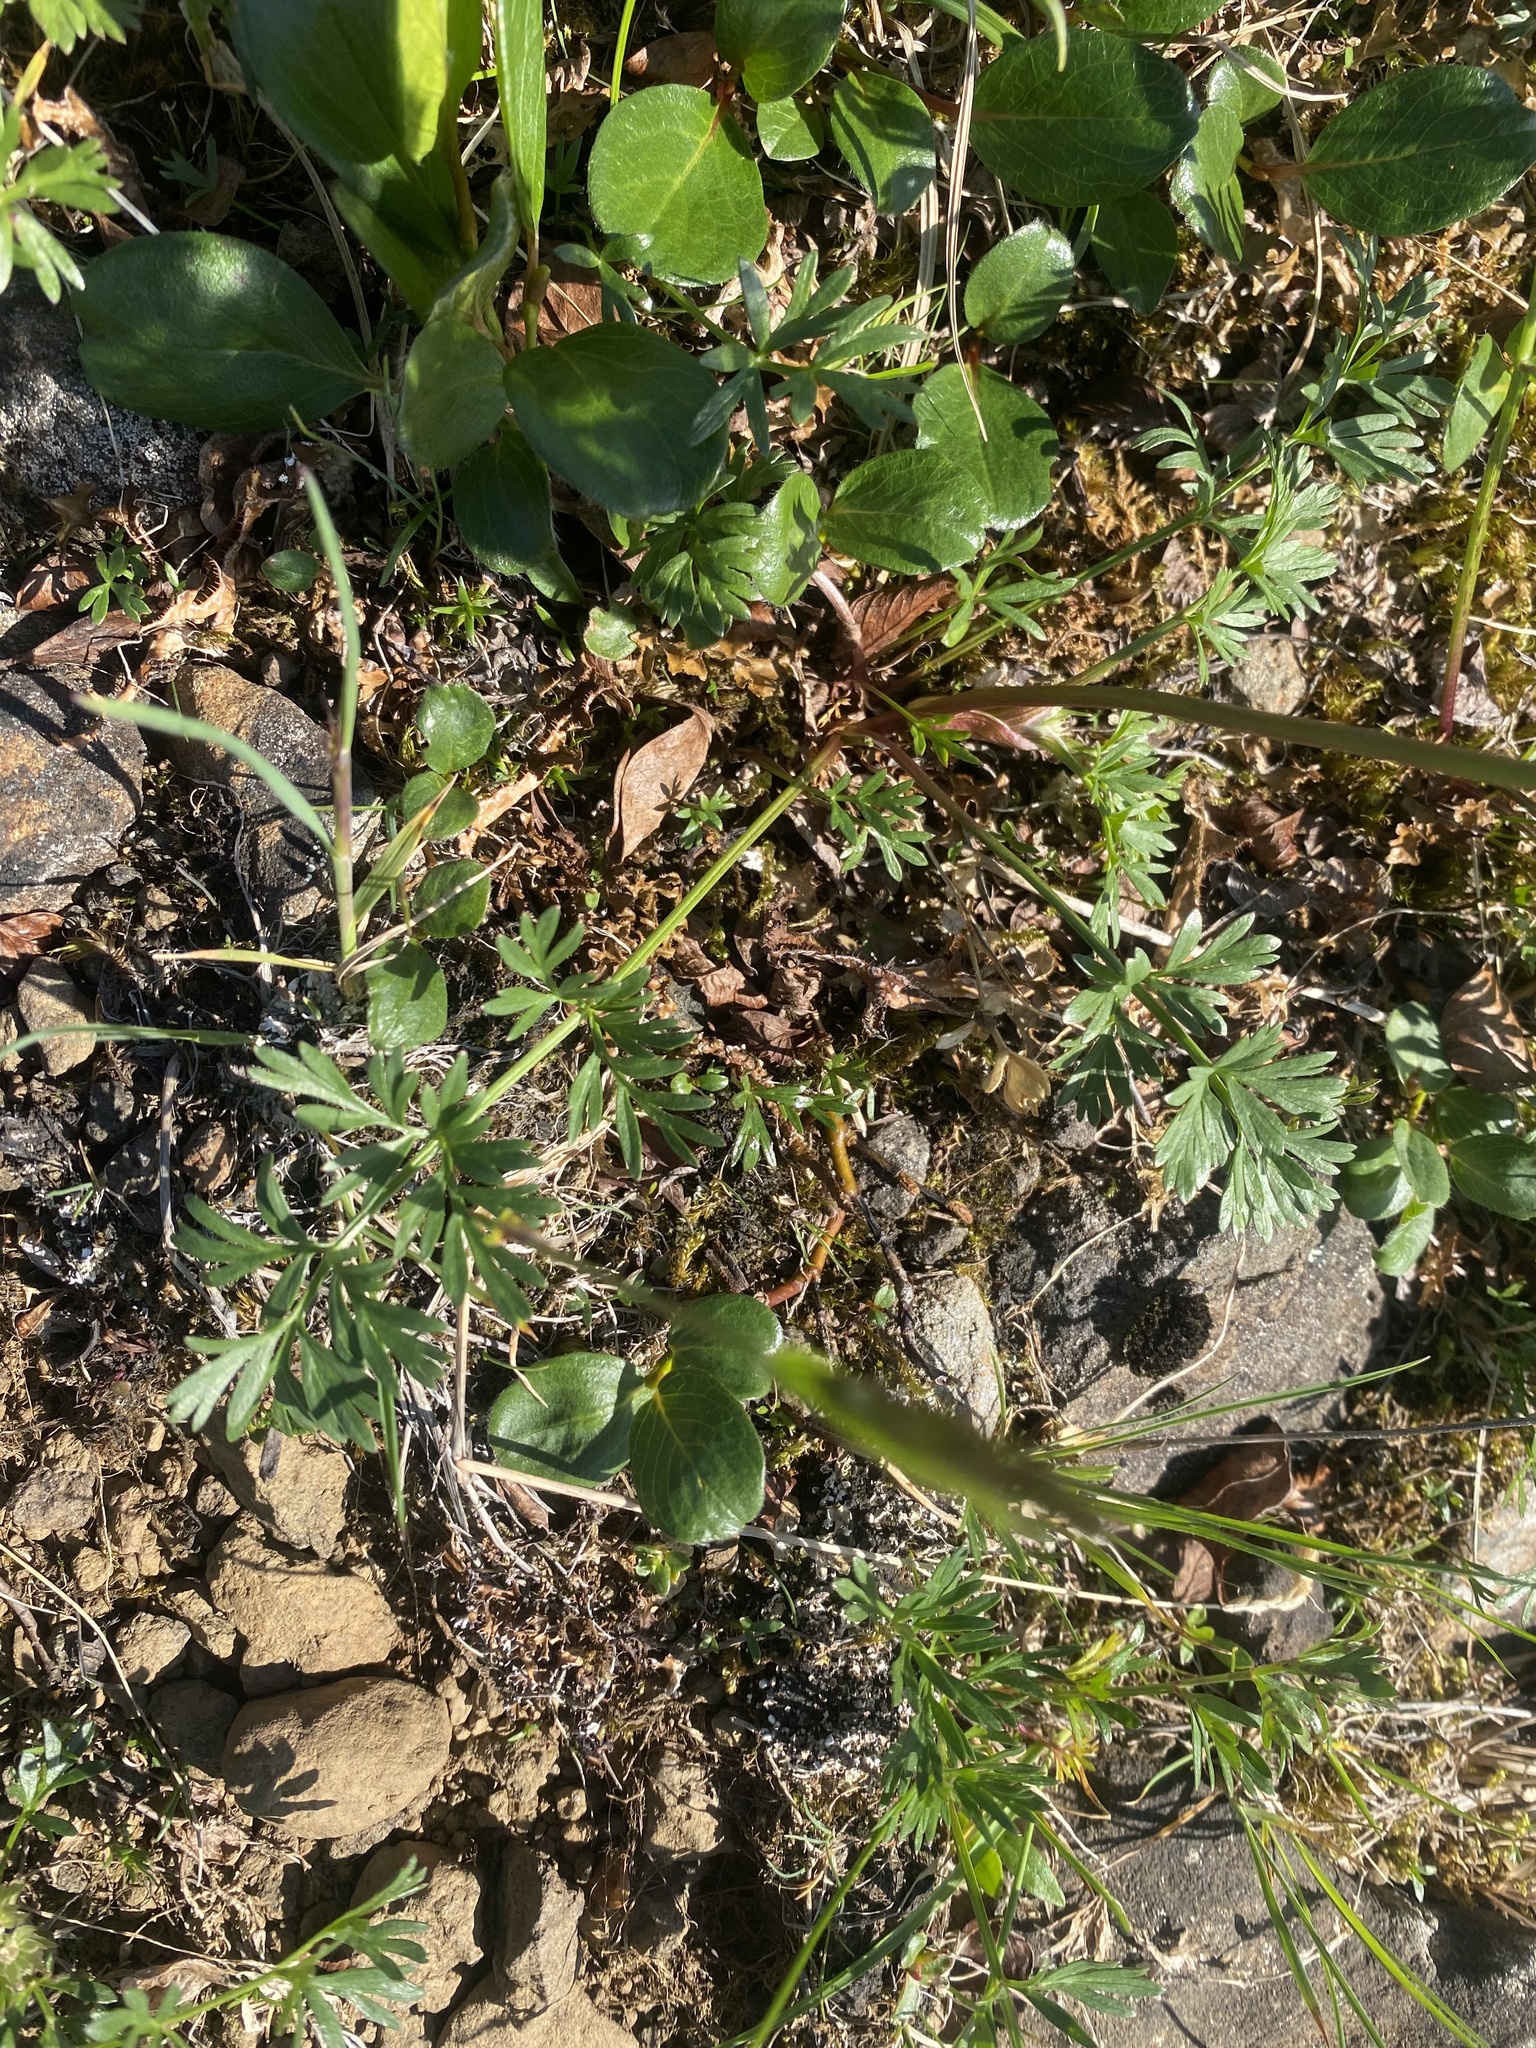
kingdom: Plantae
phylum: Tracheophyta
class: Magnoliopsida
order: Apiales
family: Apiaceae
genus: Pachypleurum
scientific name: Pachypleurum mutellinoides
